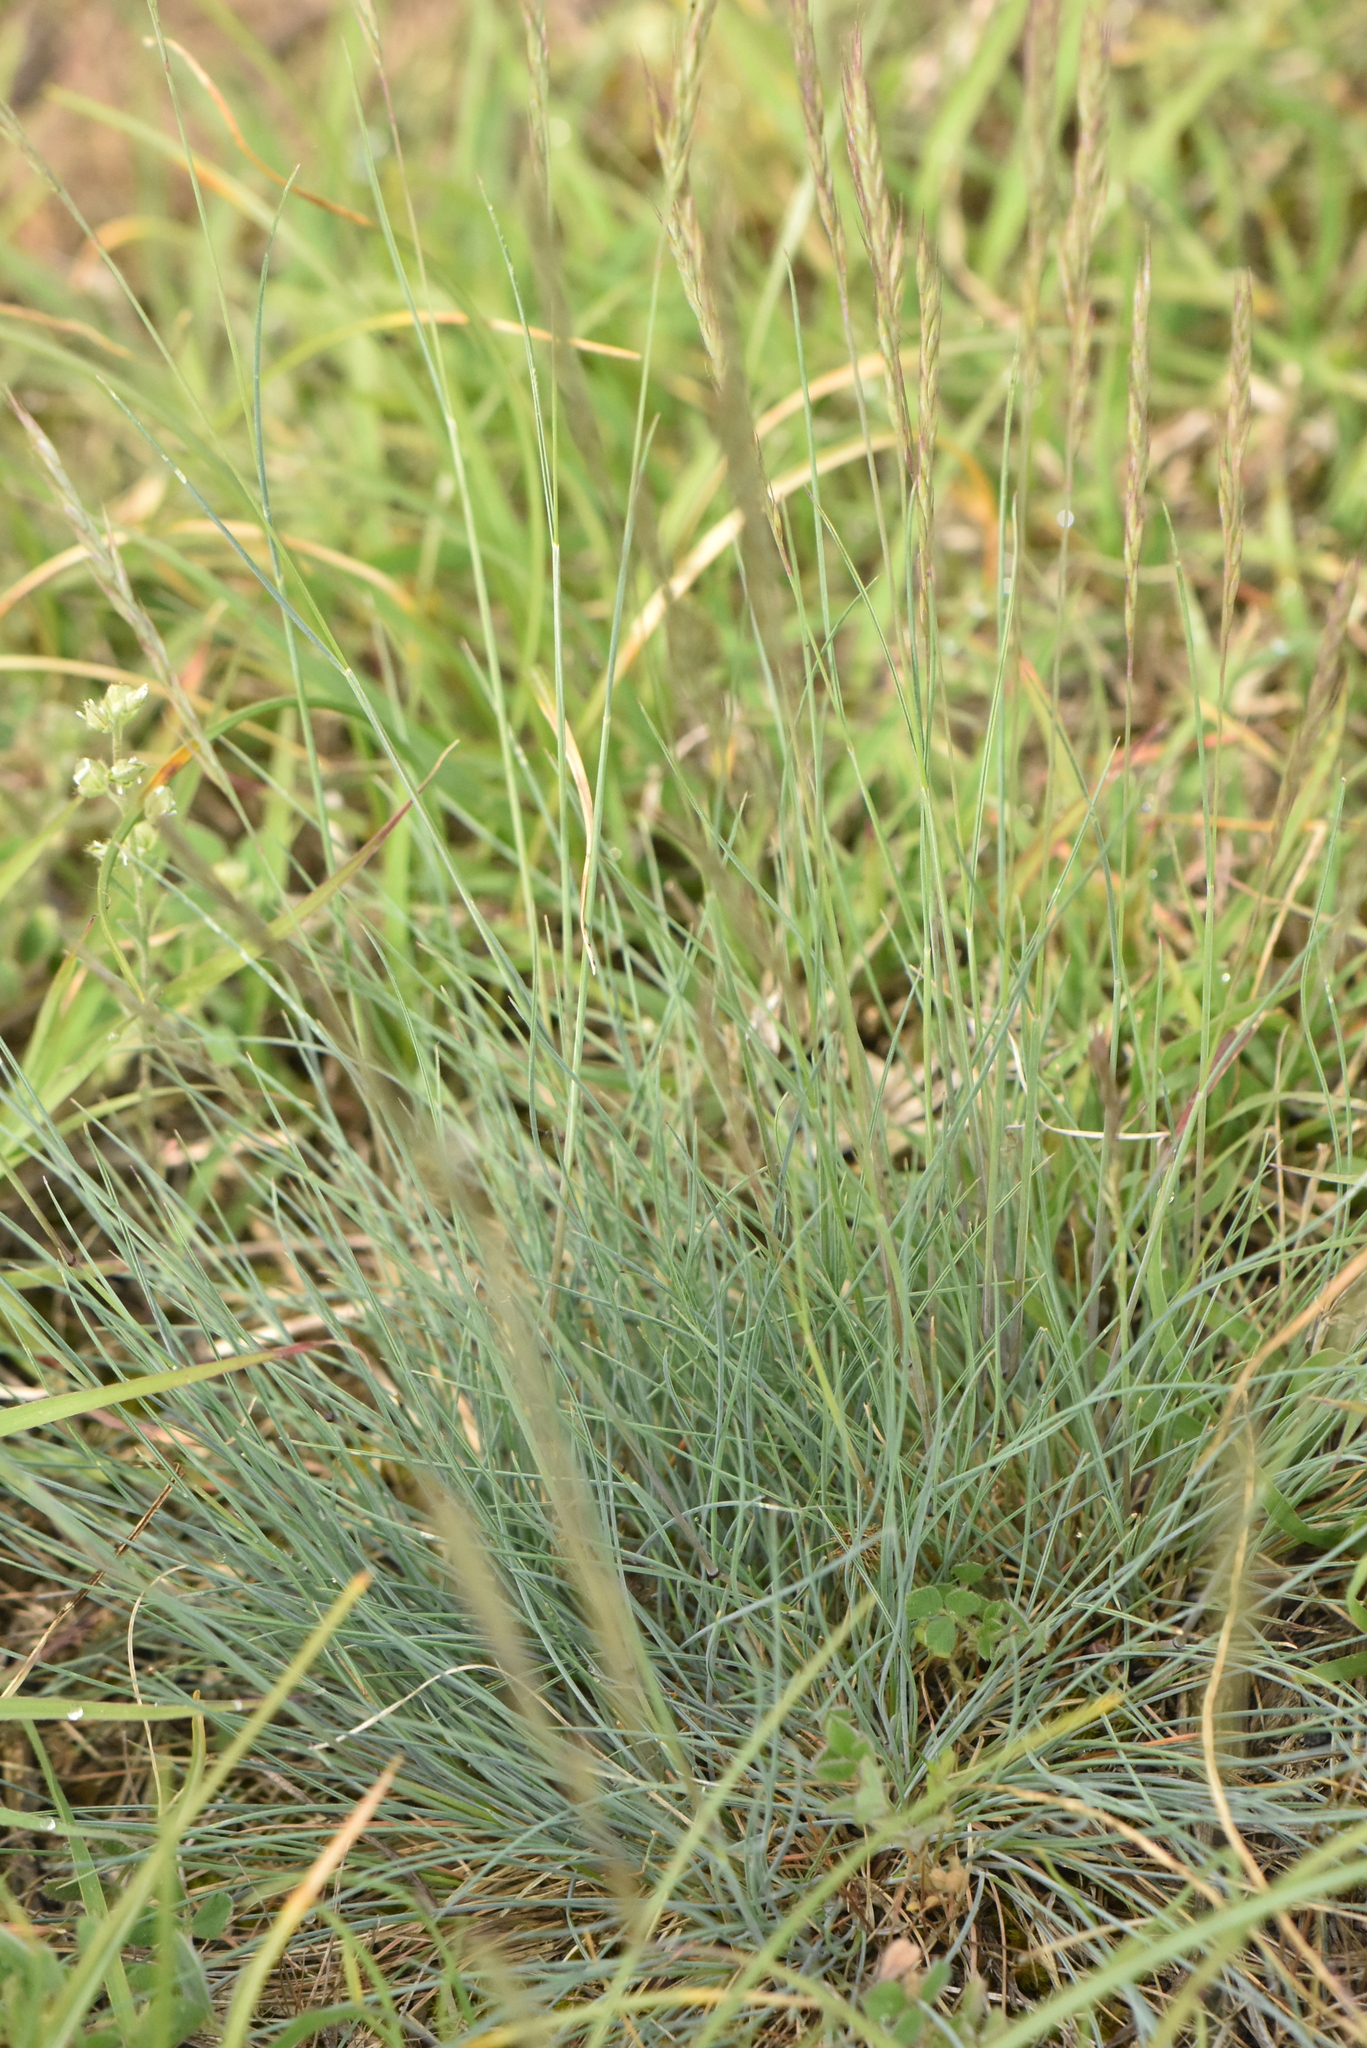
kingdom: Plantae
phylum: Tracheophyta
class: Liliopsida
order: Poales
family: Poaceae
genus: Festuca
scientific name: Festuca valesiaca
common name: Volga fescue
